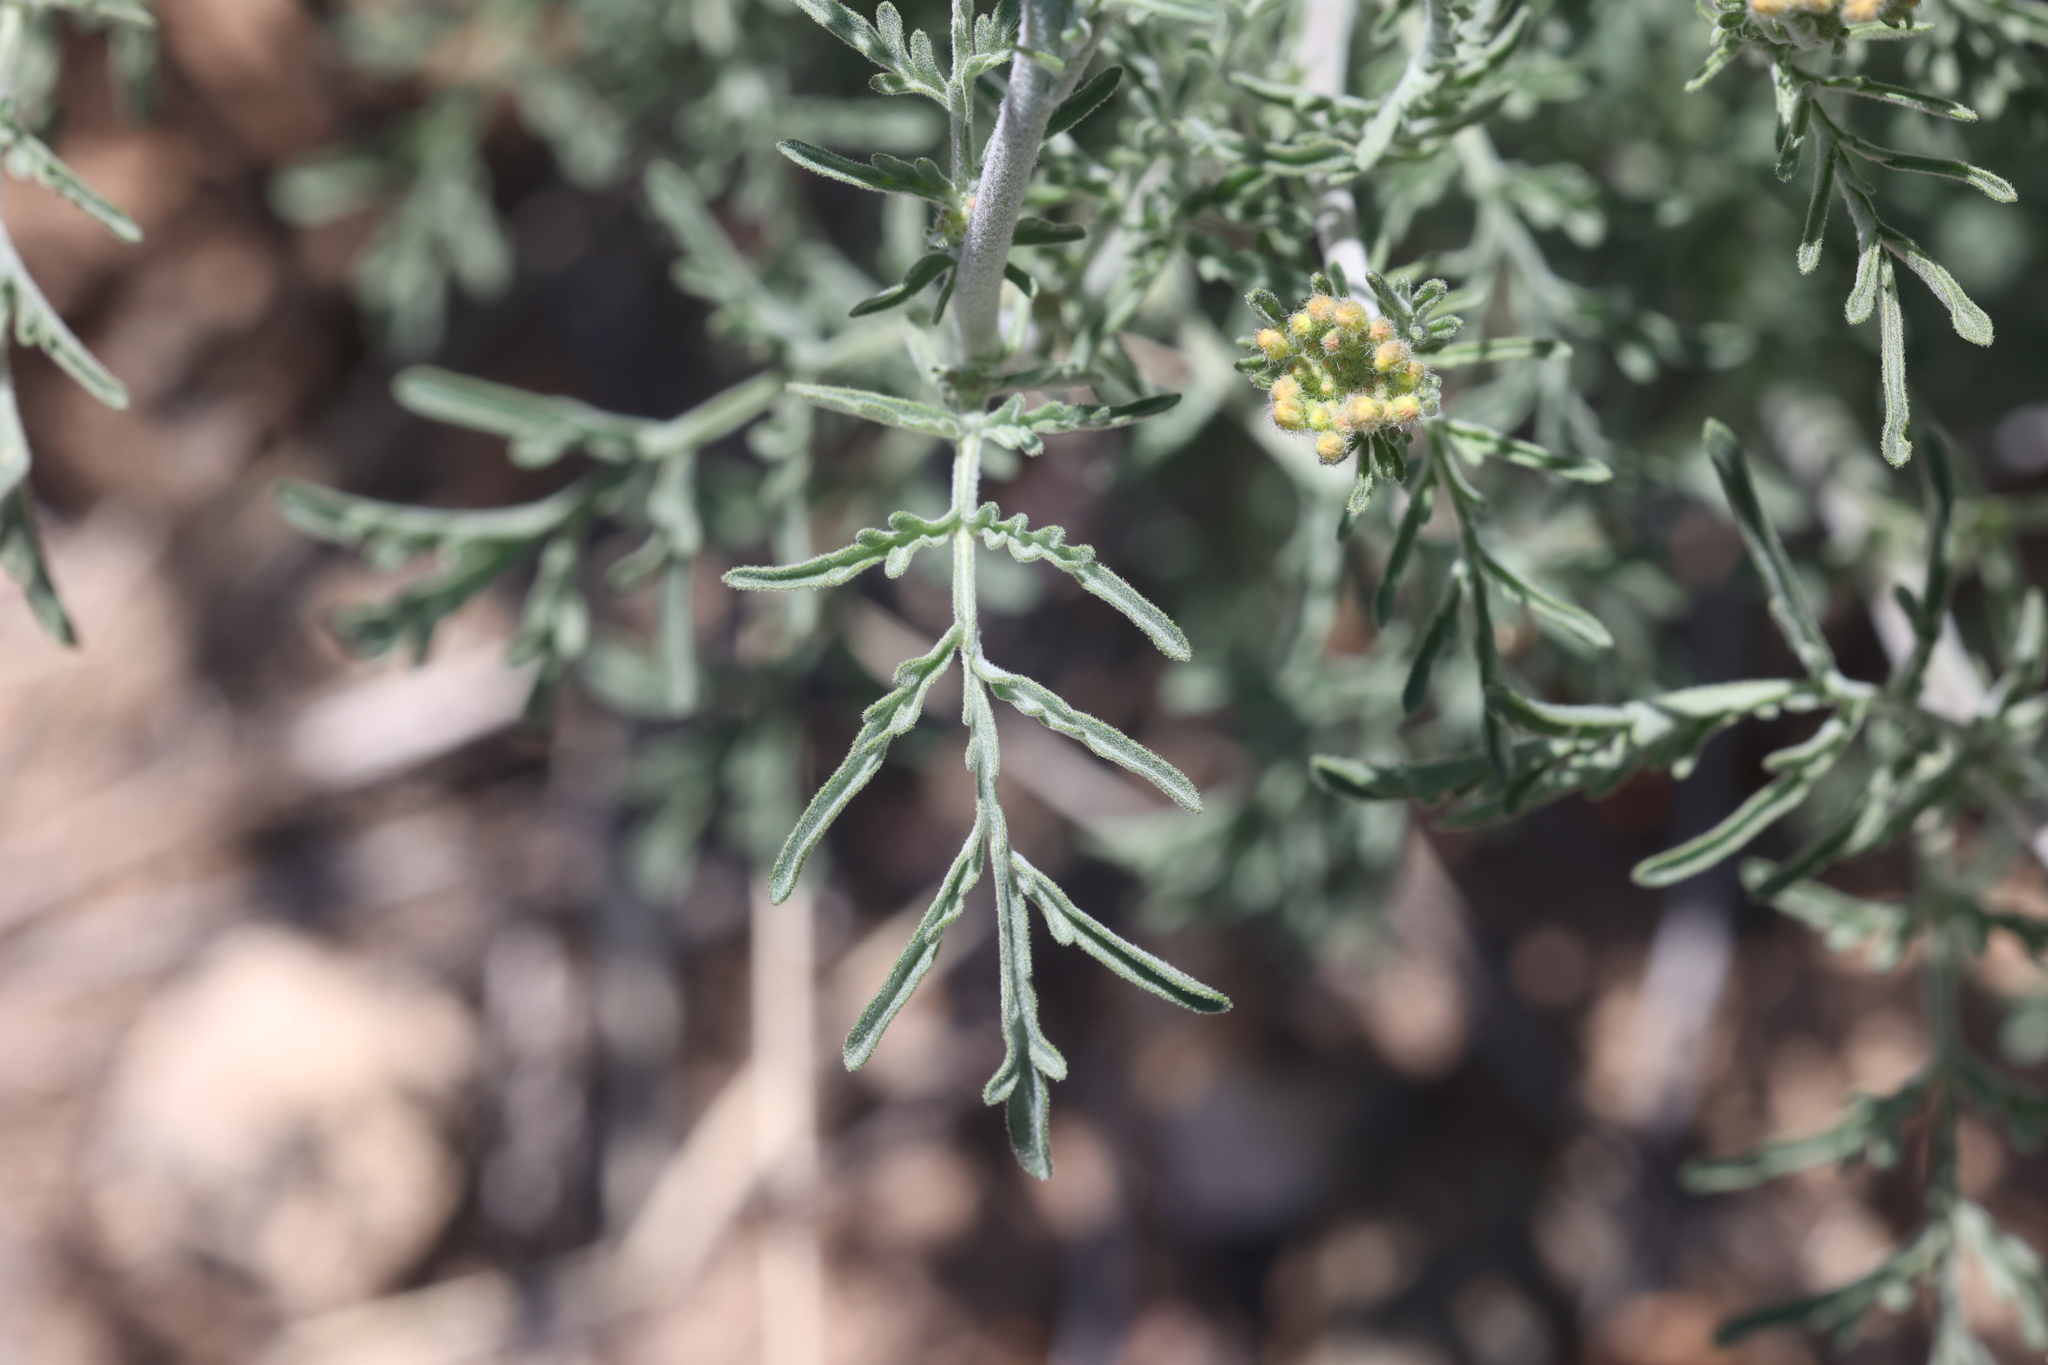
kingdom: Plantae
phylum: Tracheophyta
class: Magnoliopsida
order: Malvales
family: Malvaceae
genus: Sphaeralcea
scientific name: Sphaeralcea coccinea
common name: Moss-rose
